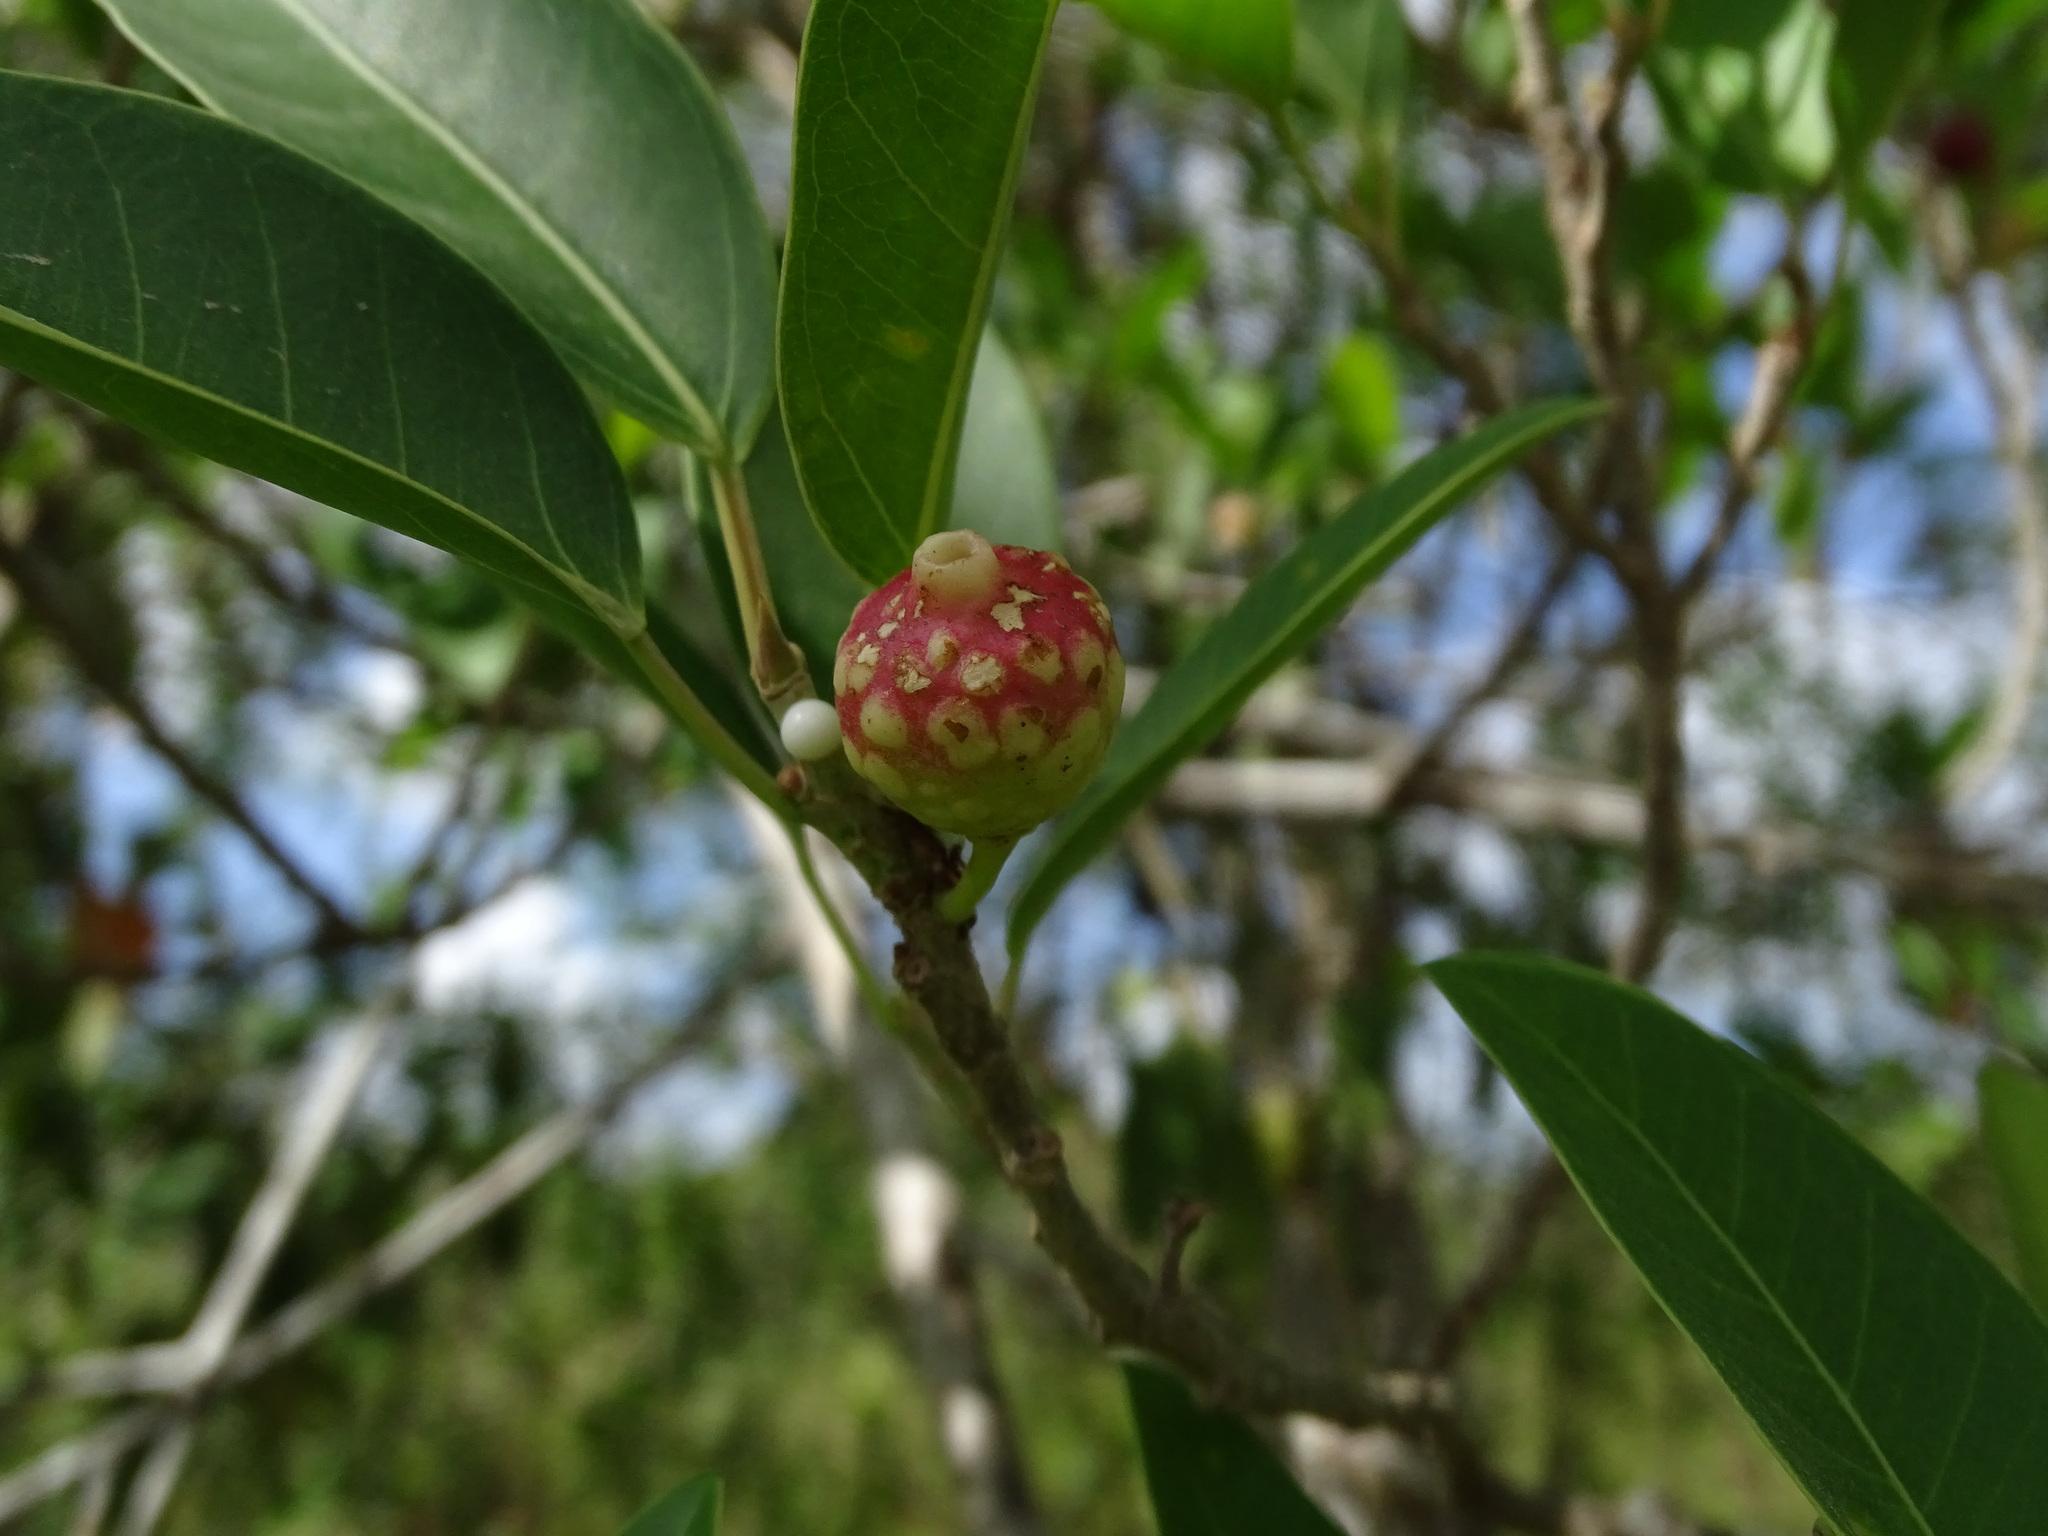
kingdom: Plantae
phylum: Tracheophyta
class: Magnoliopsida
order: Rosales
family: Moraceae
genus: Ficus
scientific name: Ficus pertusa
